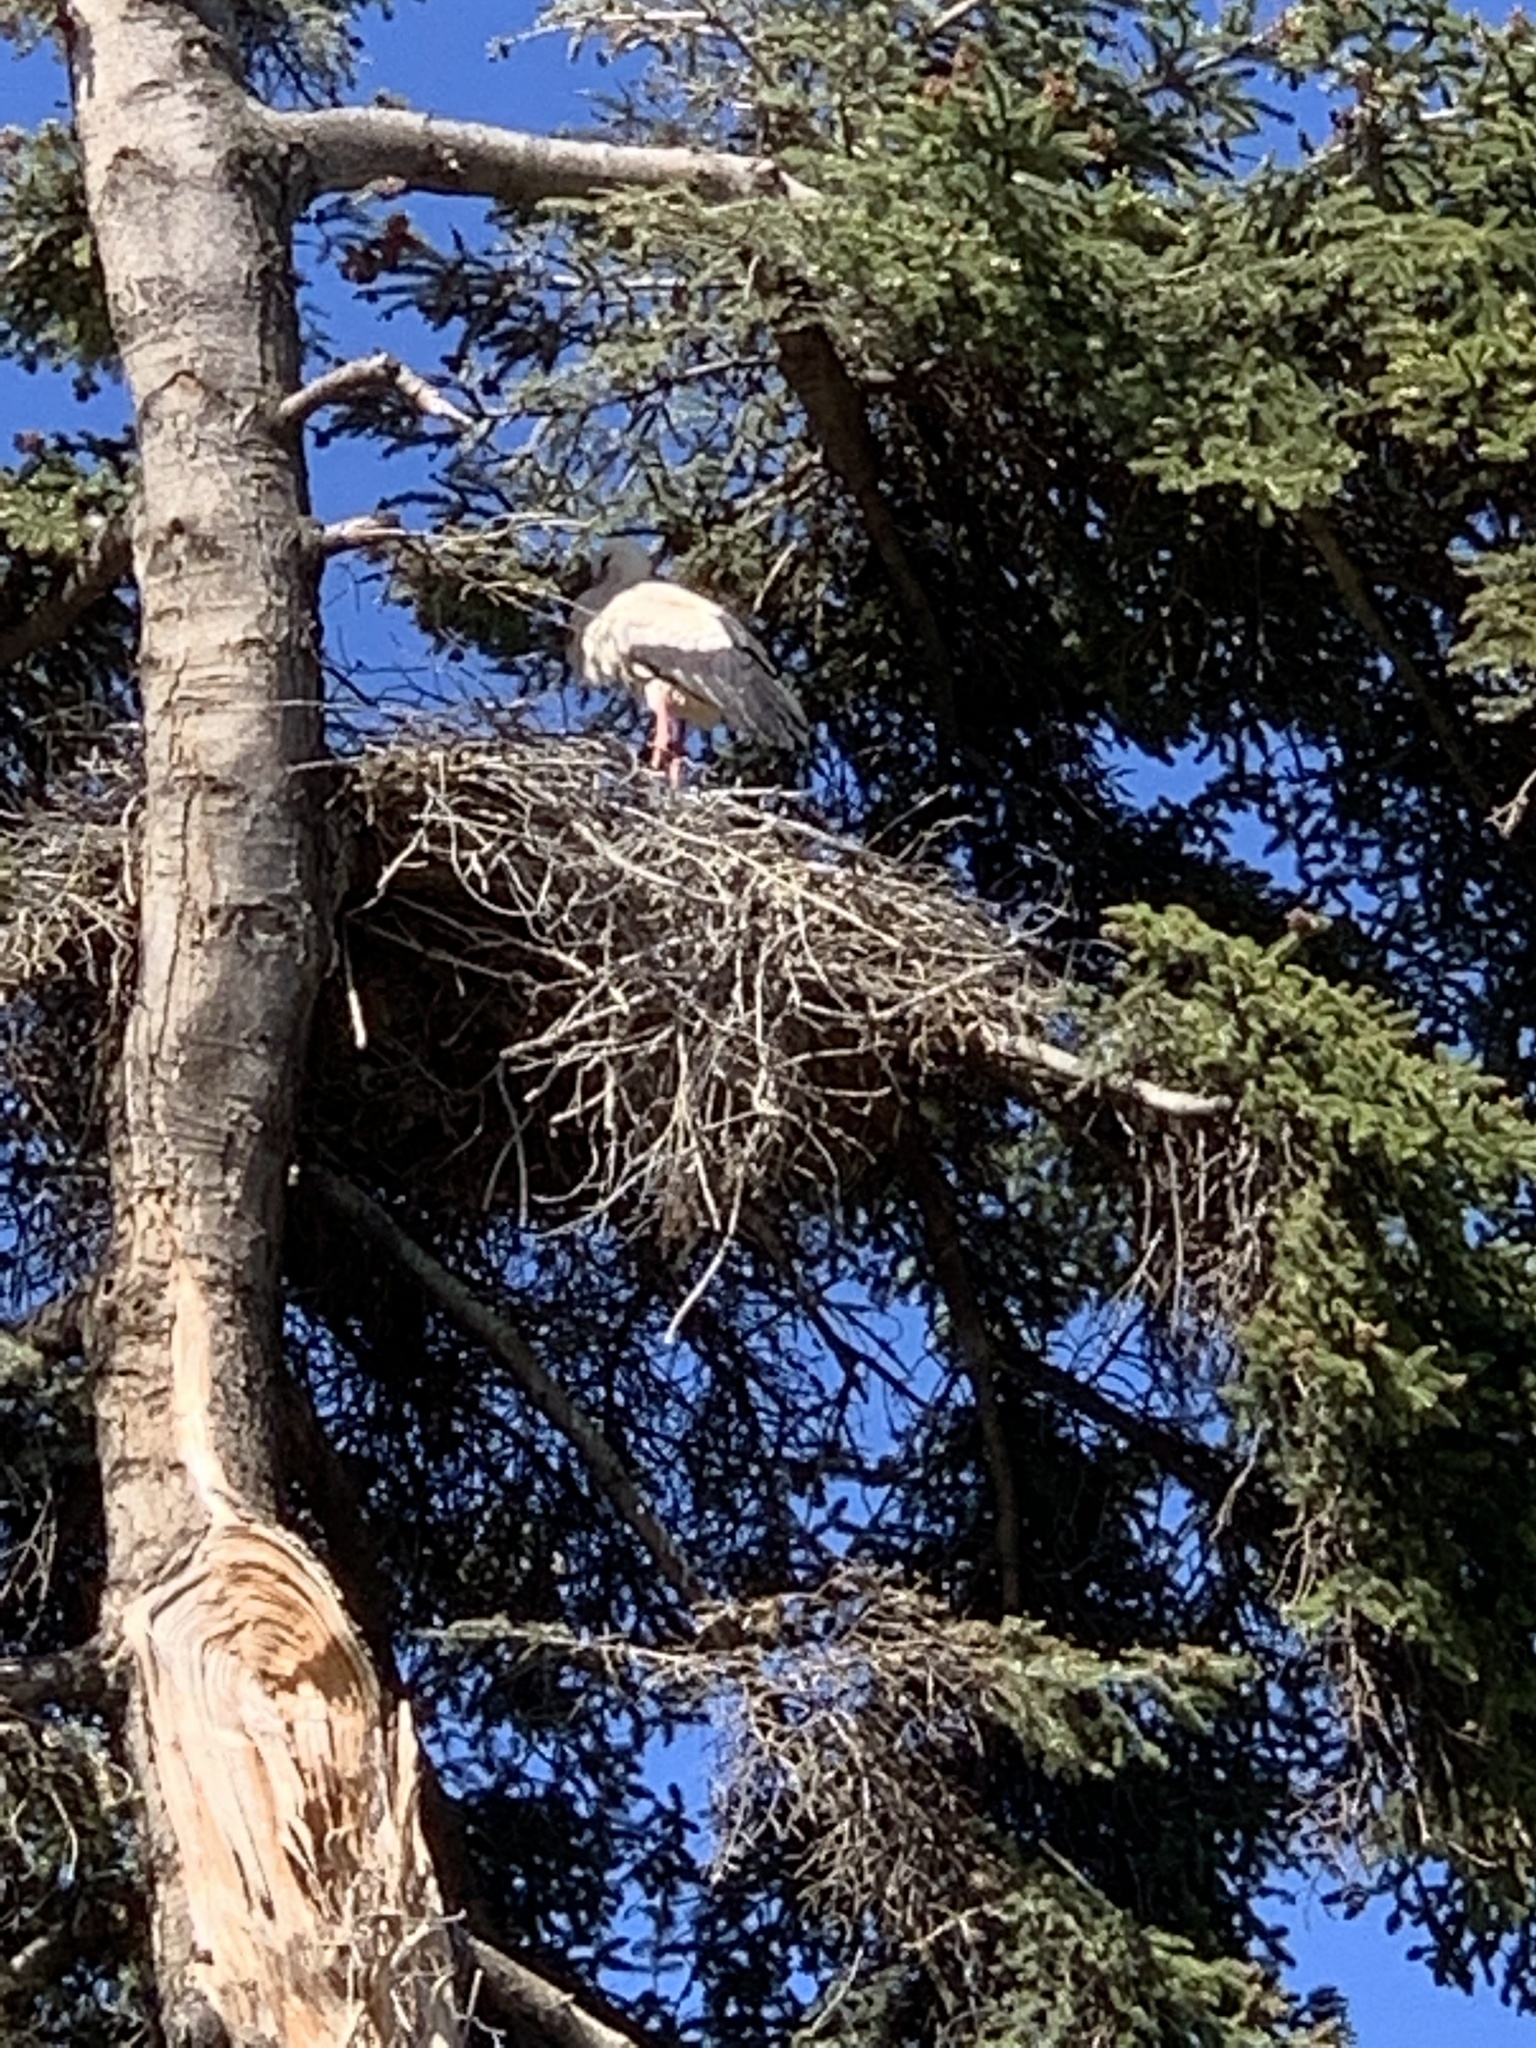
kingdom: Animalia
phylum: Chordata
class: Aves
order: Ciconiiformes
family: Ciconiidae
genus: Ciconia
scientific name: Ciconia ciconia
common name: White stork
